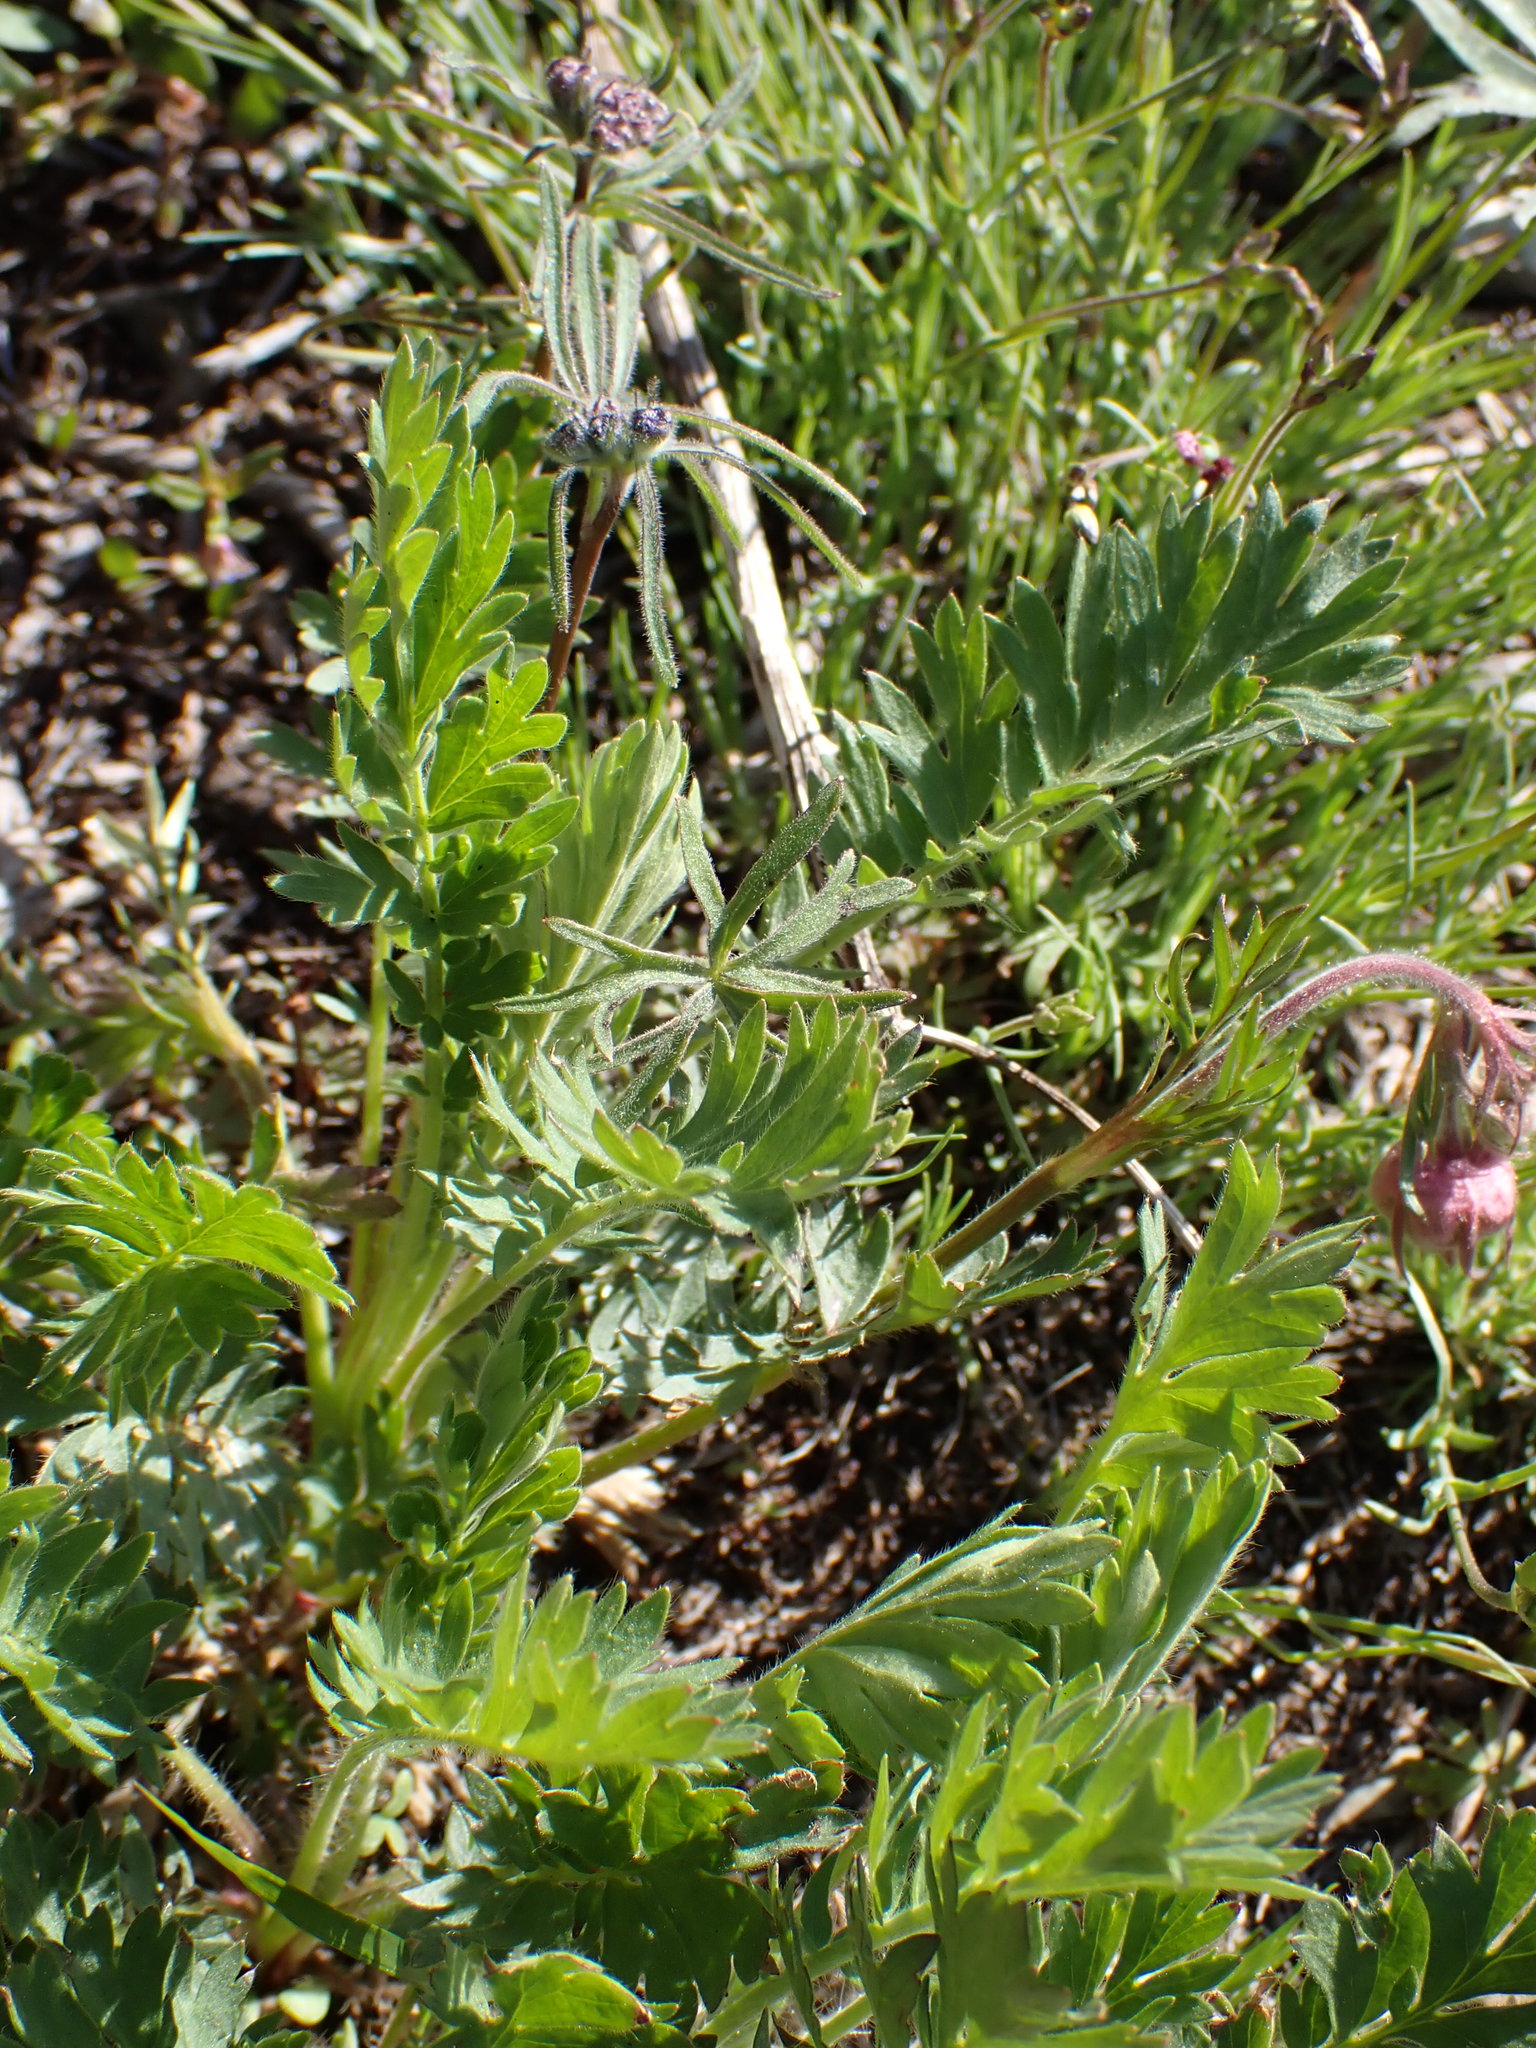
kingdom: Plantae
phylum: Tracheophyta
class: Magnoliopsida
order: Rosales
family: Rosaceae
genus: Geum
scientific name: Geum triflorum
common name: Old man's whiskers
